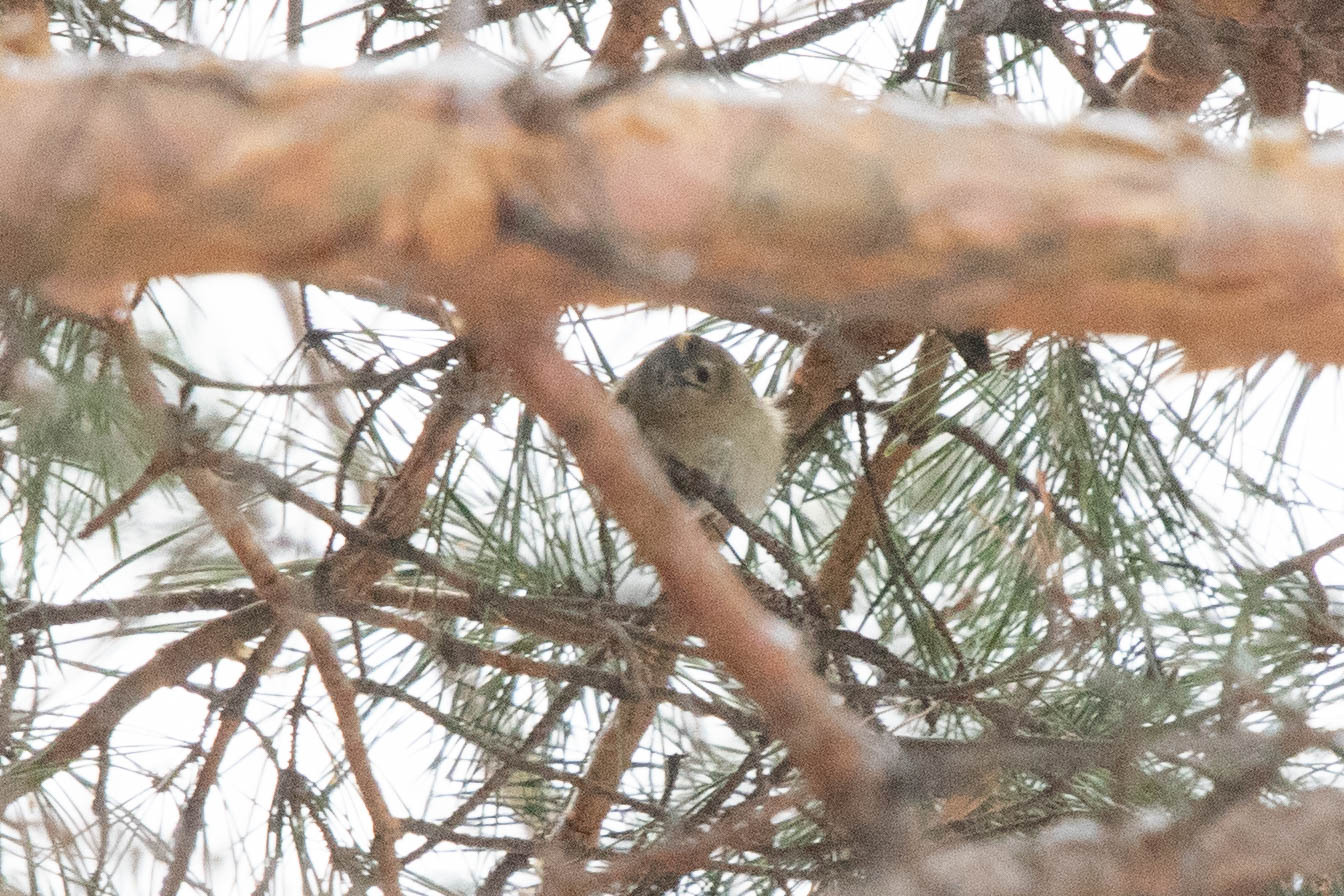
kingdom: Animalia
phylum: Chordata
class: Aves
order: Passeriformes
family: Regulidae
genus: Regulus
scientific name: Regulus regulus
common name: Goldcrest
